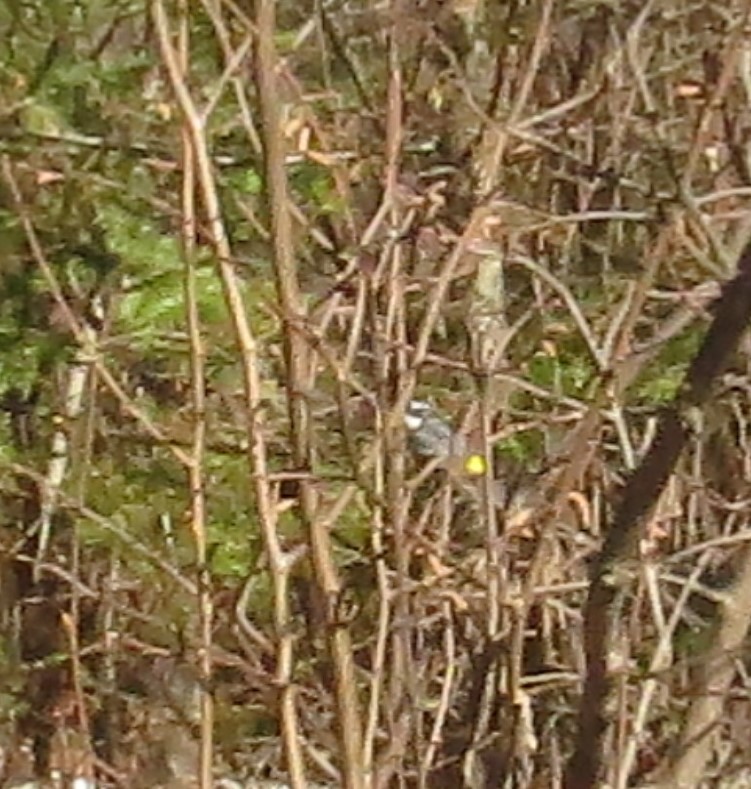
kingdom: Animalia
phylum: Chordata
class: Aves
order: Passeriformes
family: Parulidae
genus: Setophaga
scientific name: Setophaga coronata
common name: Myrtle warbler
